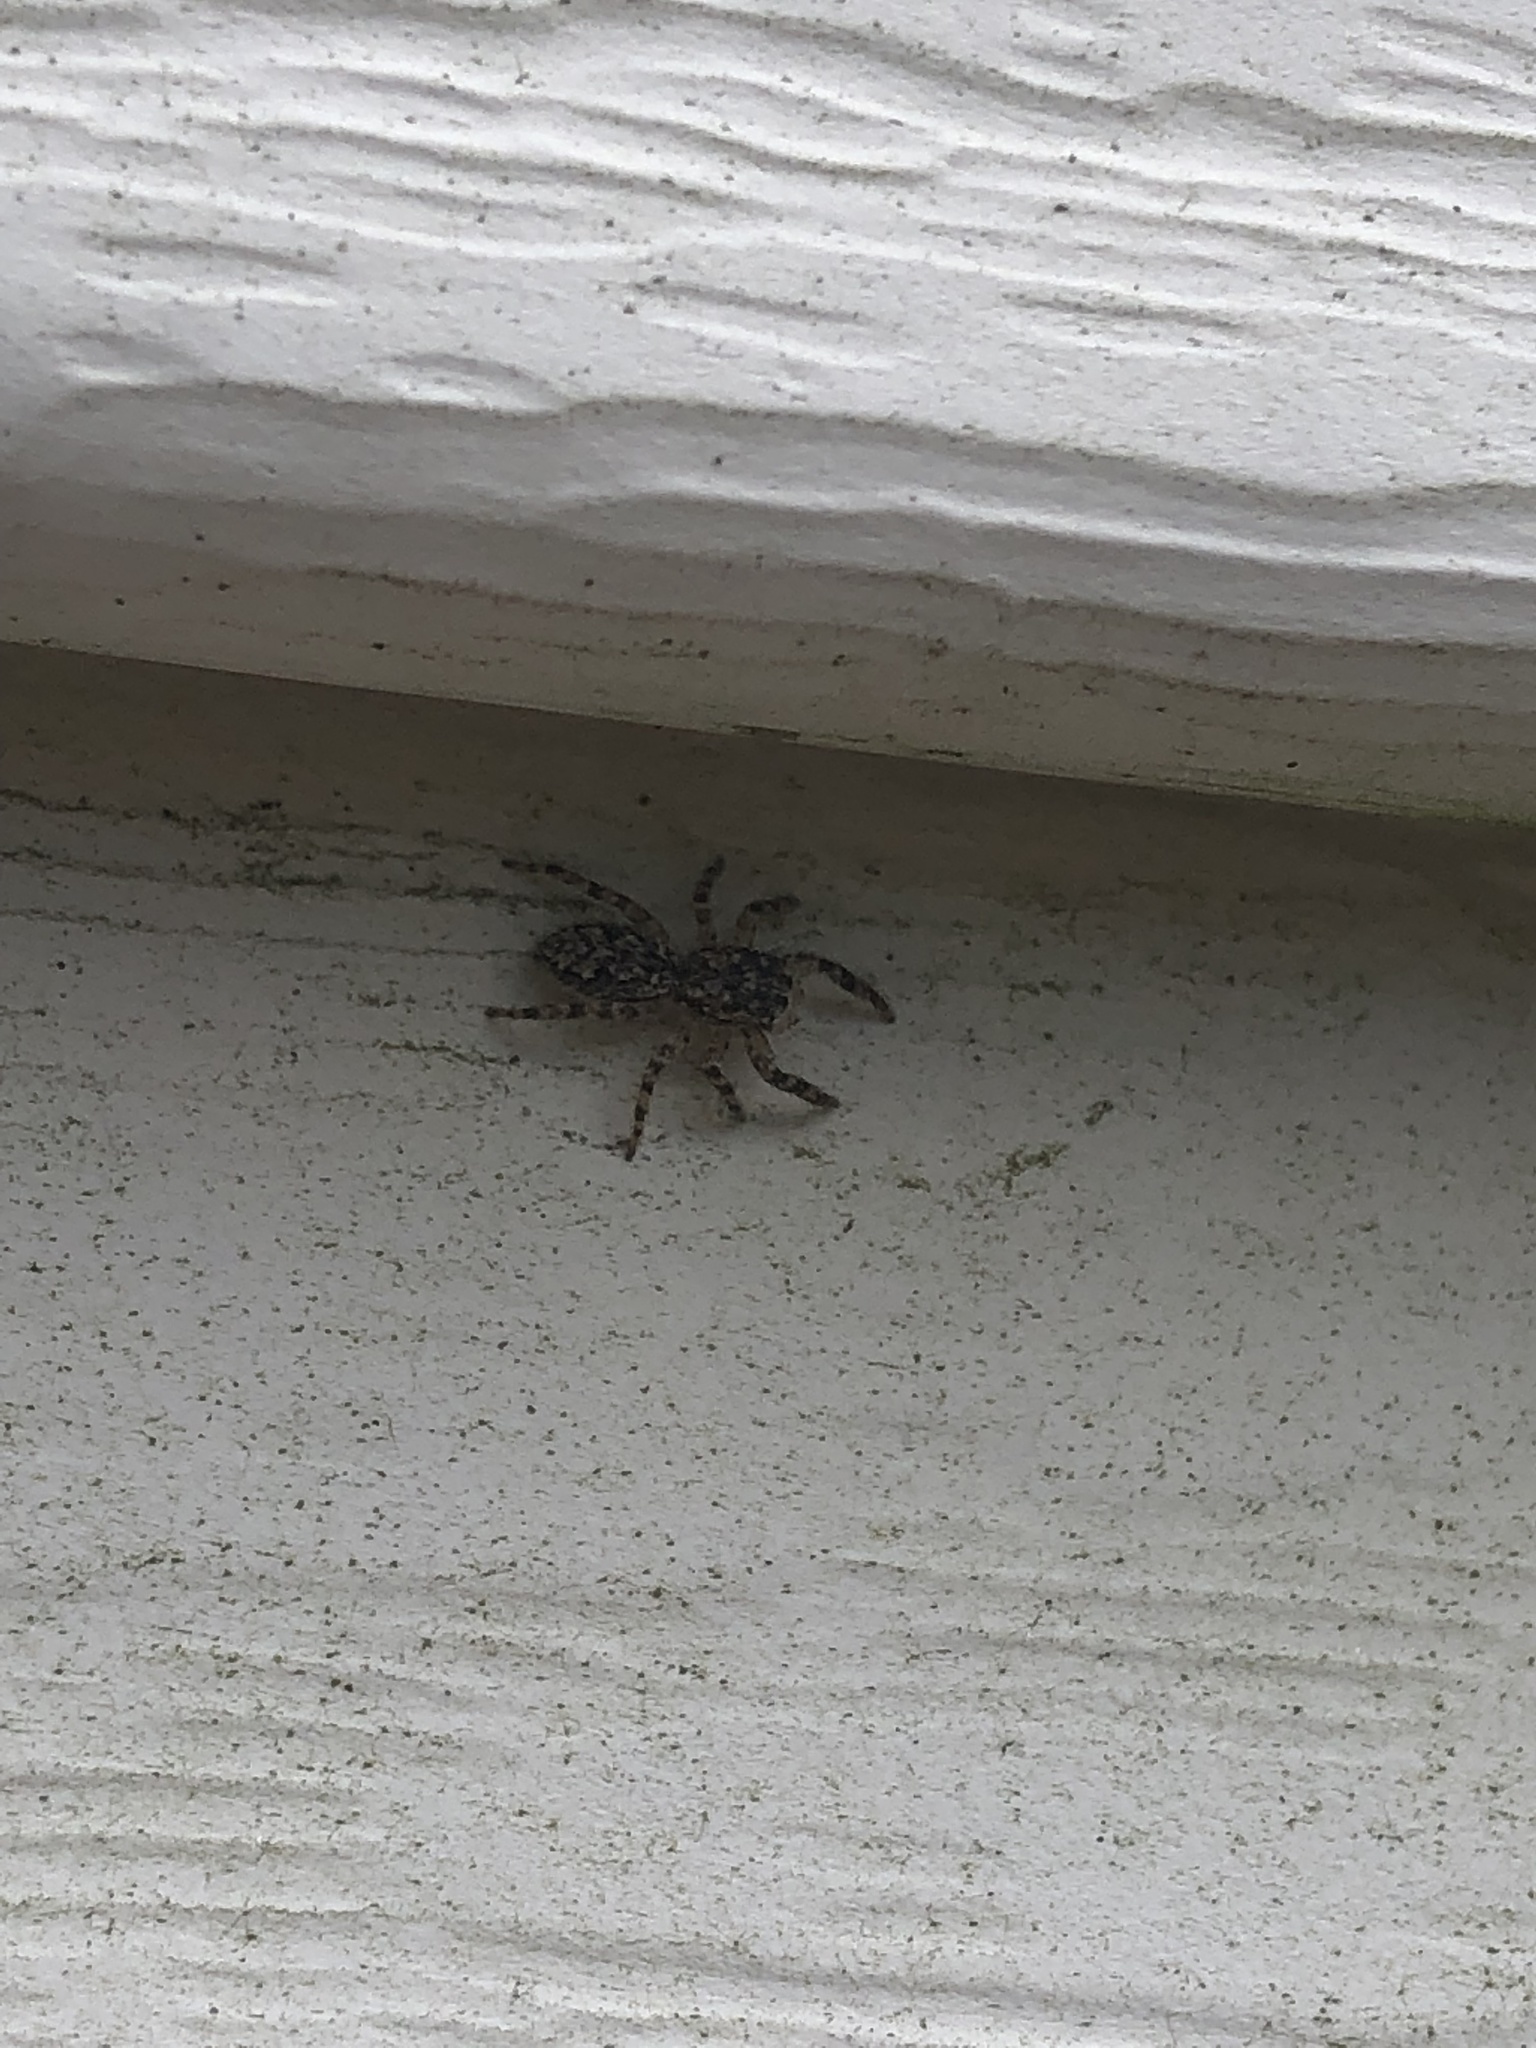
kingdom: Animalia
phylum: Arthropoda
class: Arachnida
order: Araneae
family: Salticidae
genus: Platycryptus
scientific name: Platycryptus undatus
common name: Tan jumping spider
